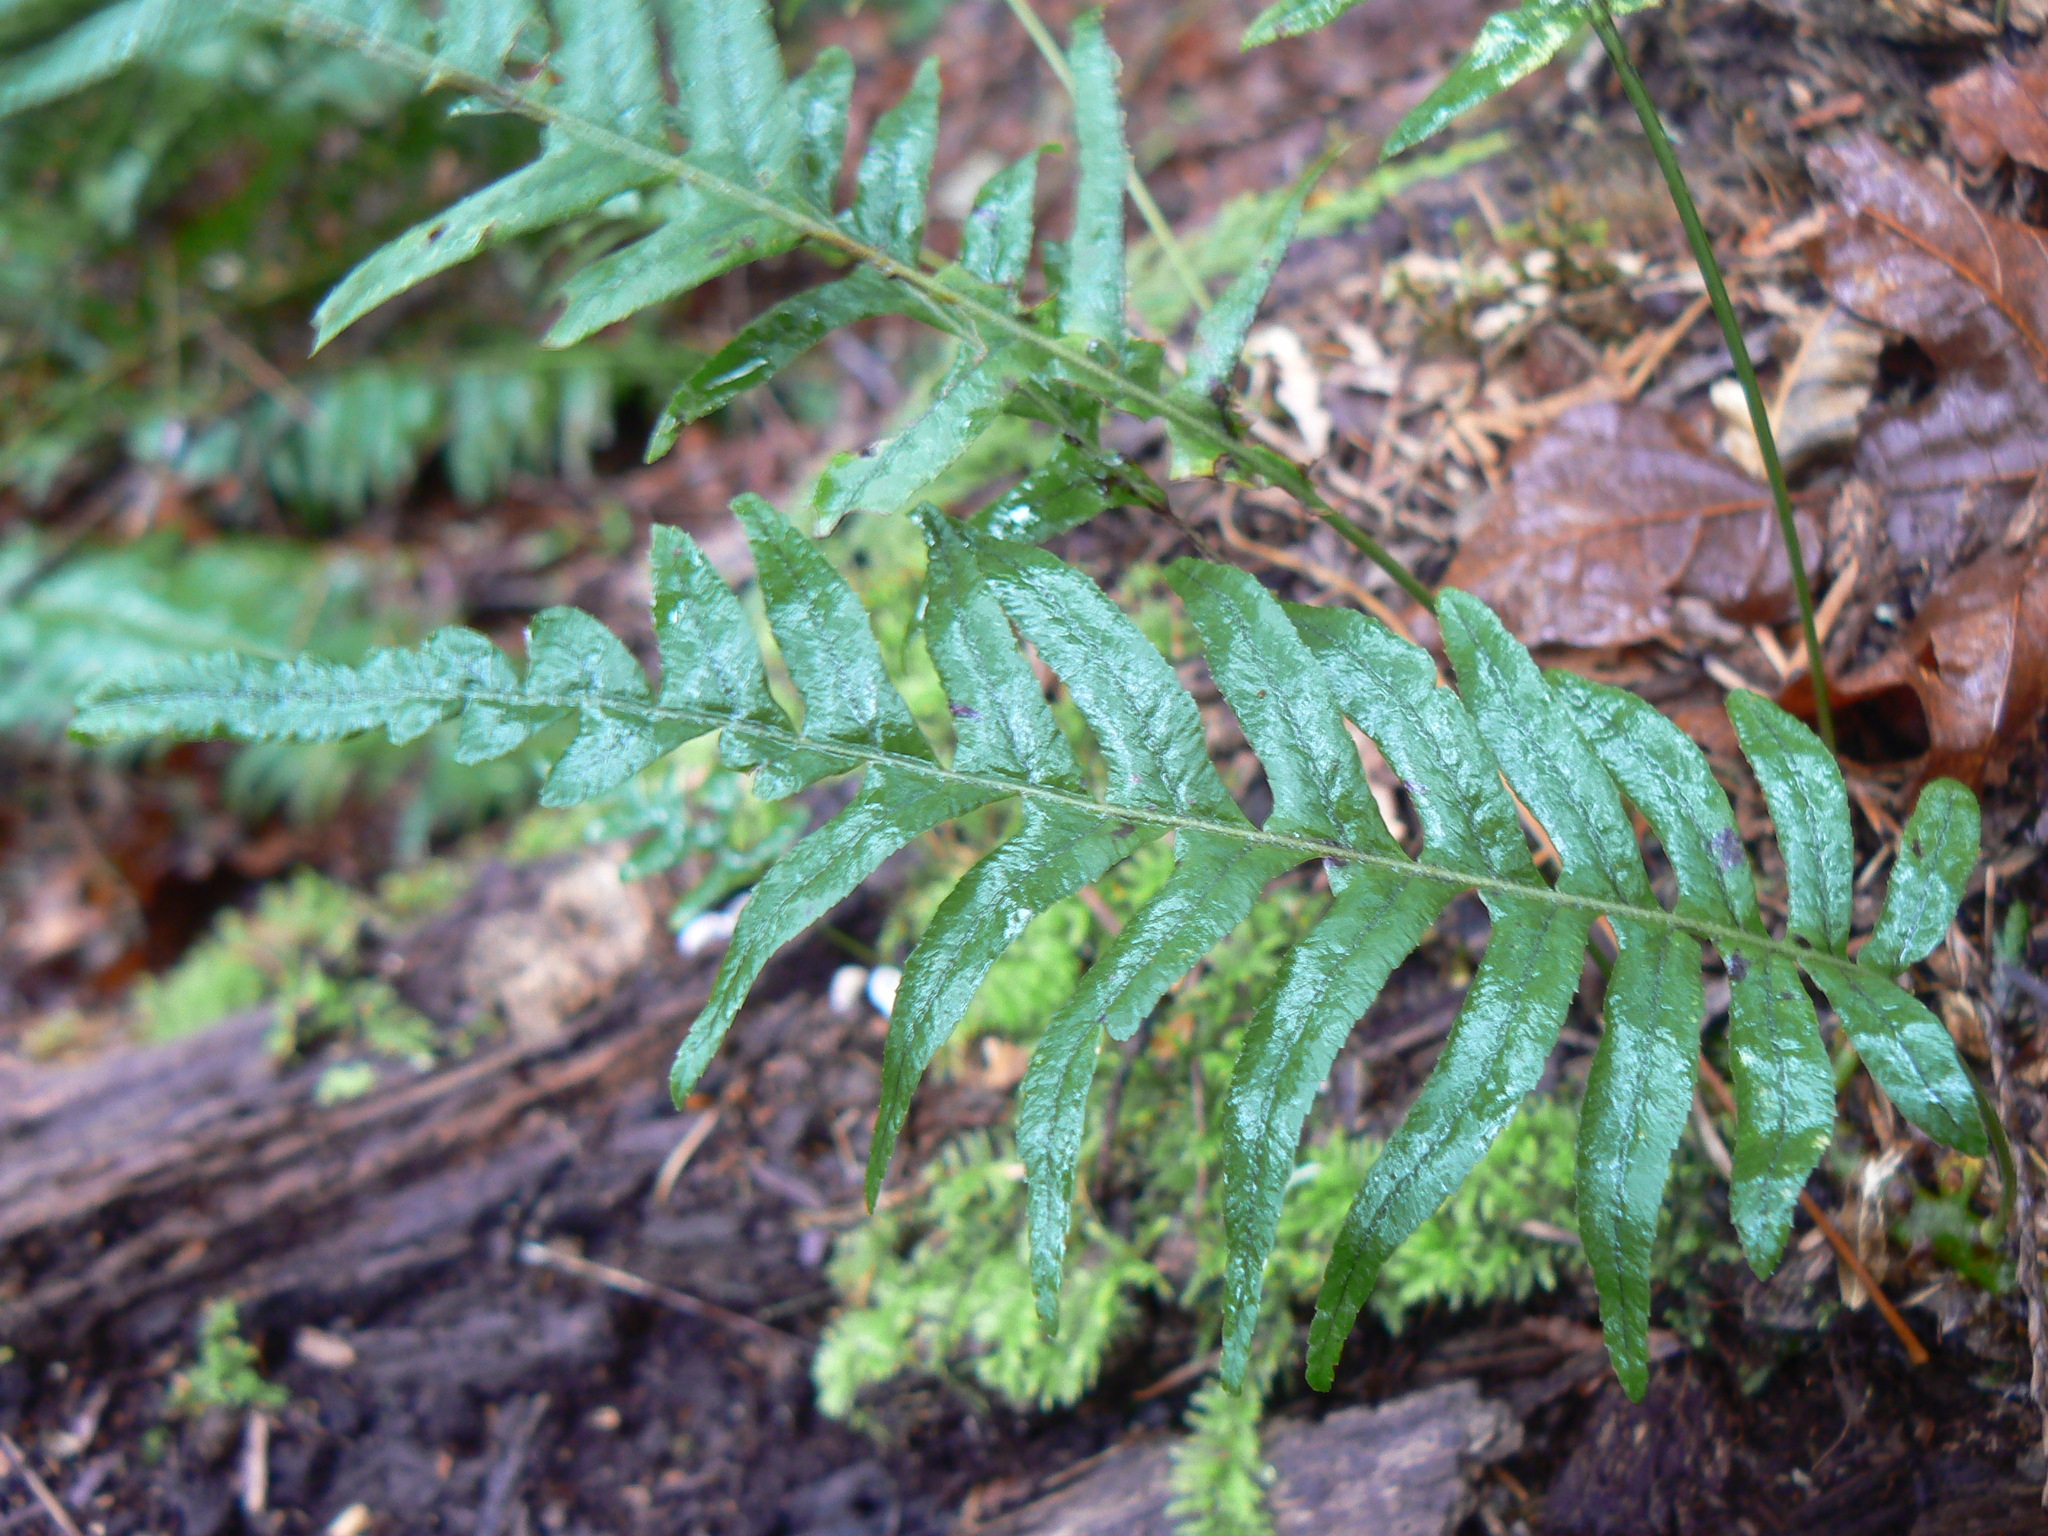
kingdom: Plantae
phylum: Tracheophyta
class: Polypodiopsida
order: Polypodiales
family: Polypodiaceae
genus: Polypodium
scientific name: Polypodium glycyrrhiza
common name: Licorice fern
